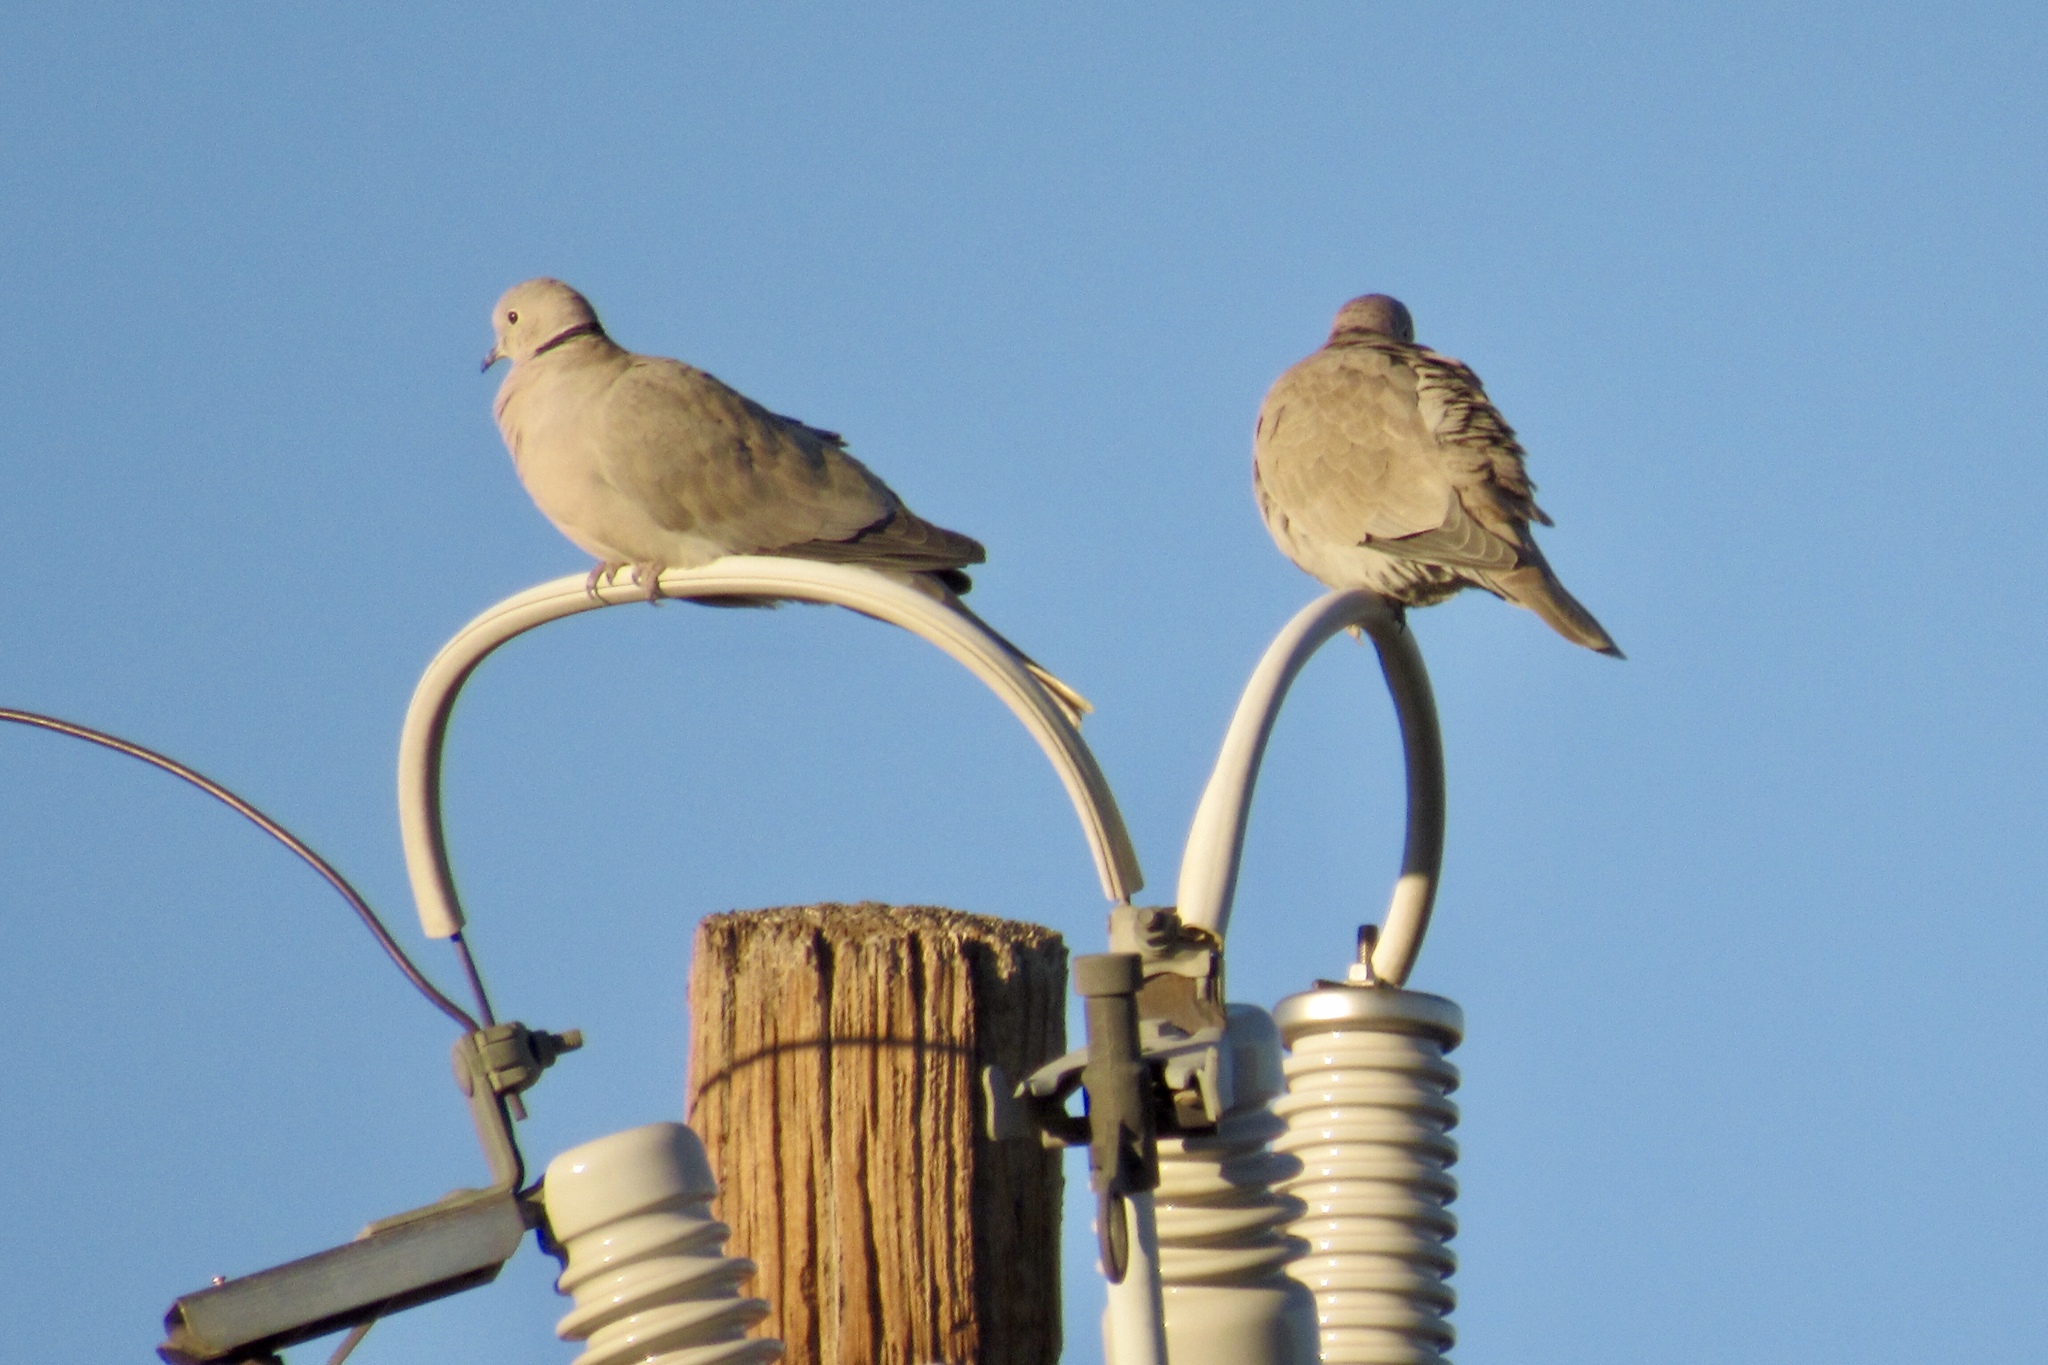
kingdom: Animalia
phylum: Chordata
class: Aves
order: Columbiformes
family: Columbidae
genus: Streptopelia
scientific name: Streptopelia decaocto
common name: Eurasian collared dove
